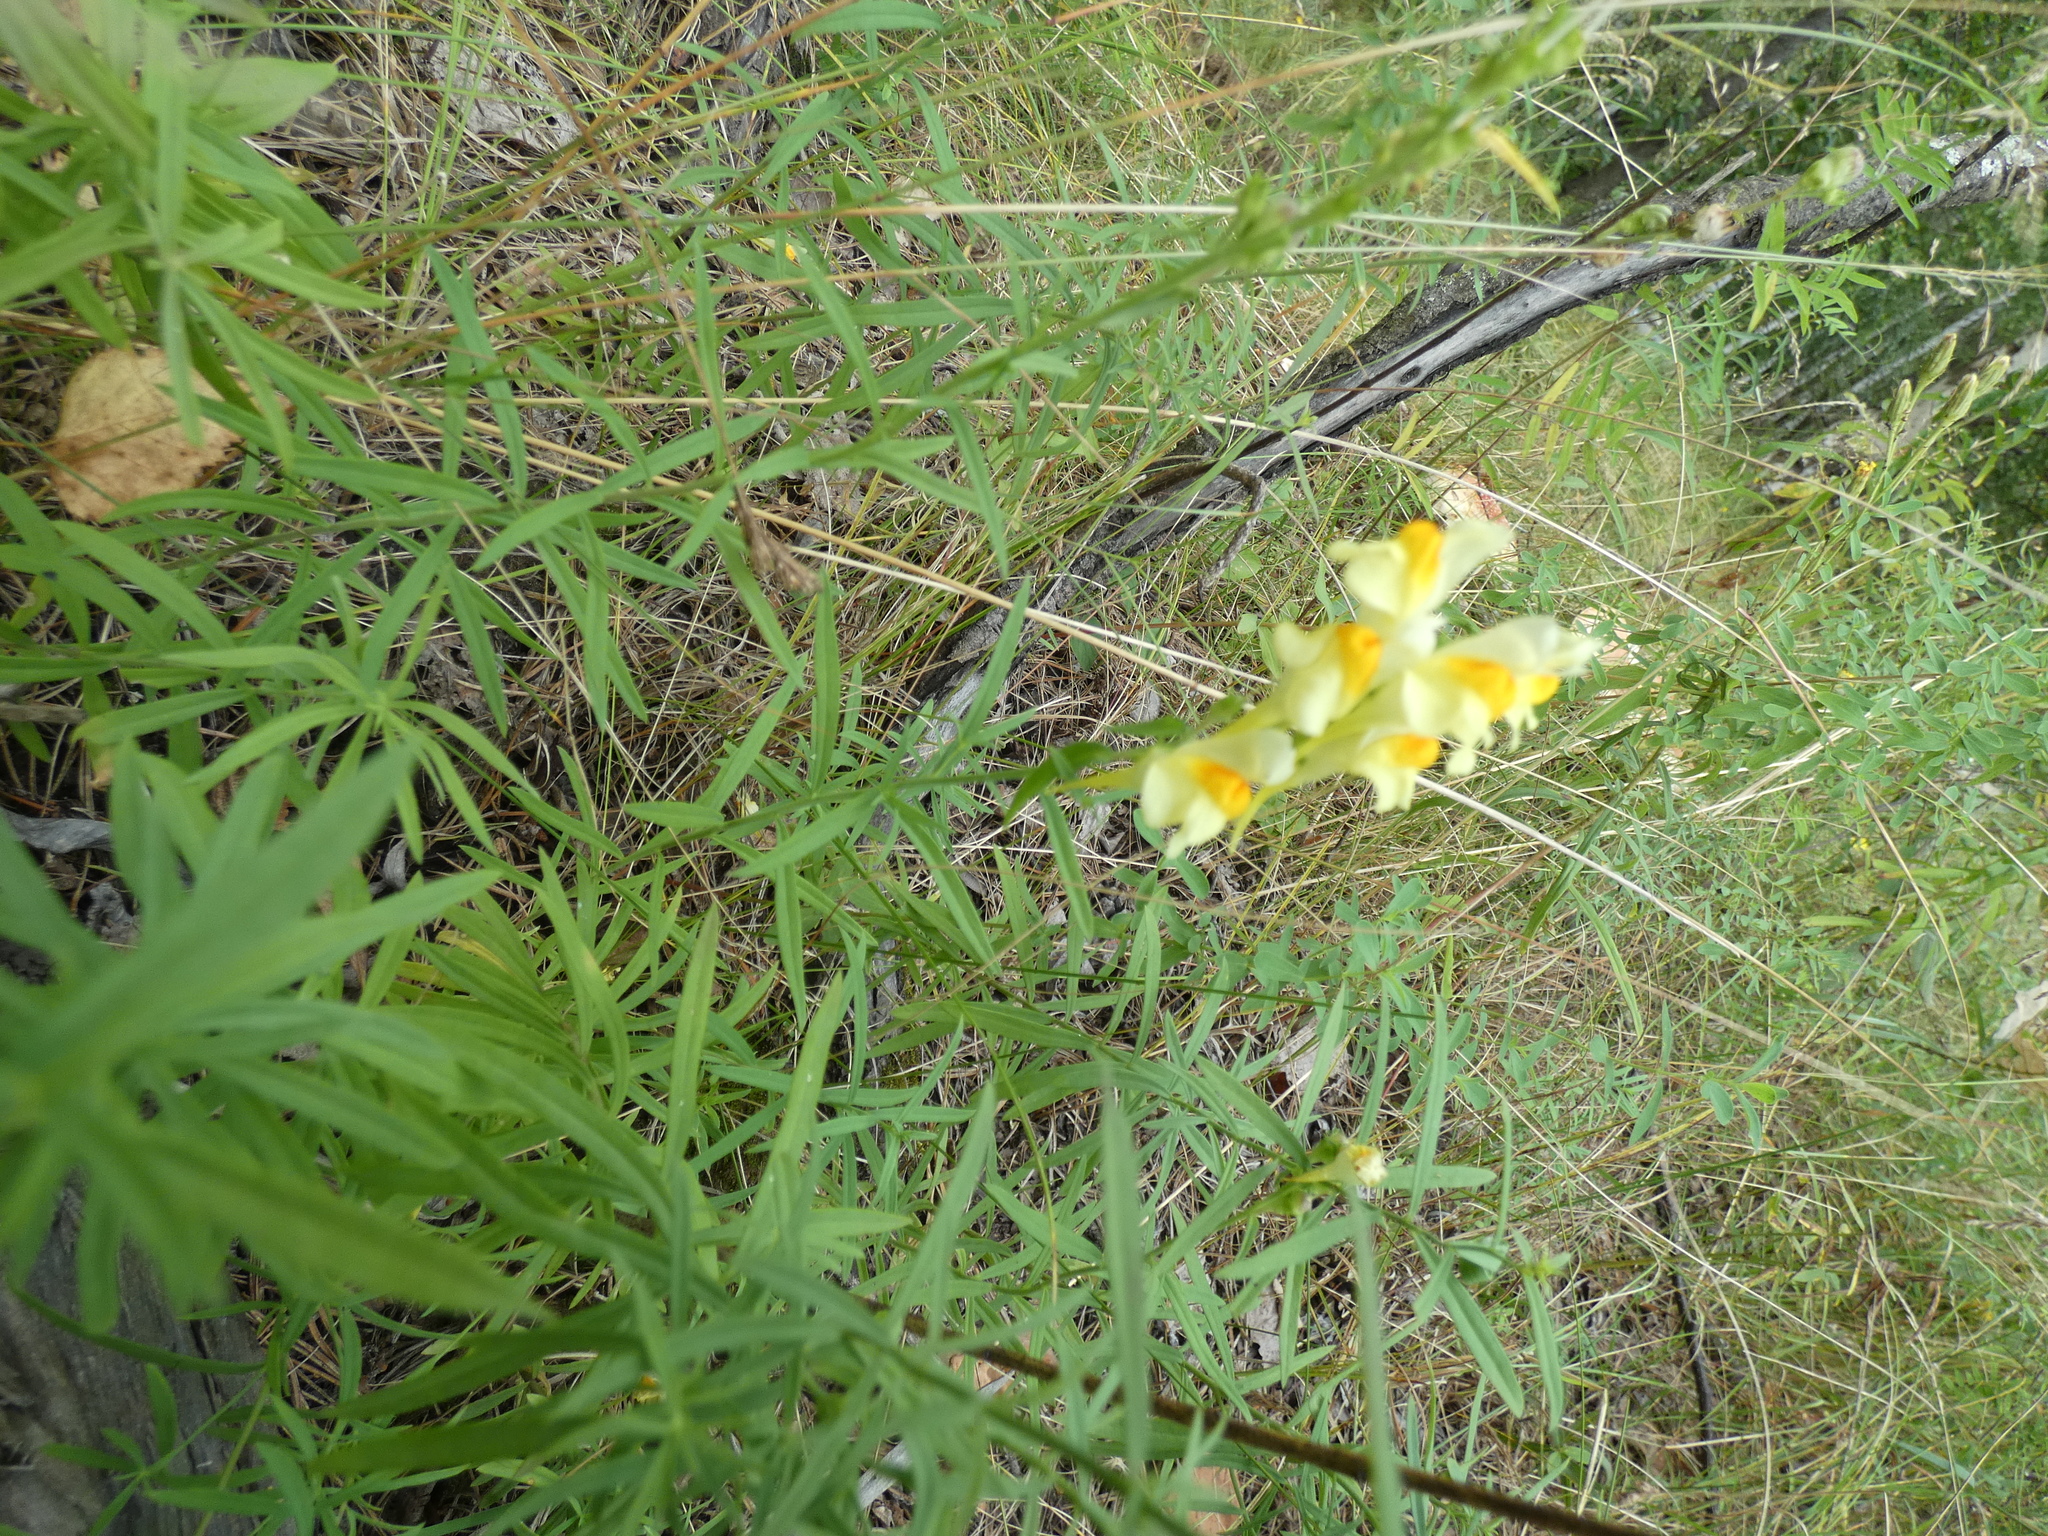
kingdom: Plantae
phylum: Tracheophyta
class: Magnoliopsida
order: Lamiales
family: Plantaginaceae
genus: Linaria
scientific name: Linaria vulgaris
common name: Butter and eggs
